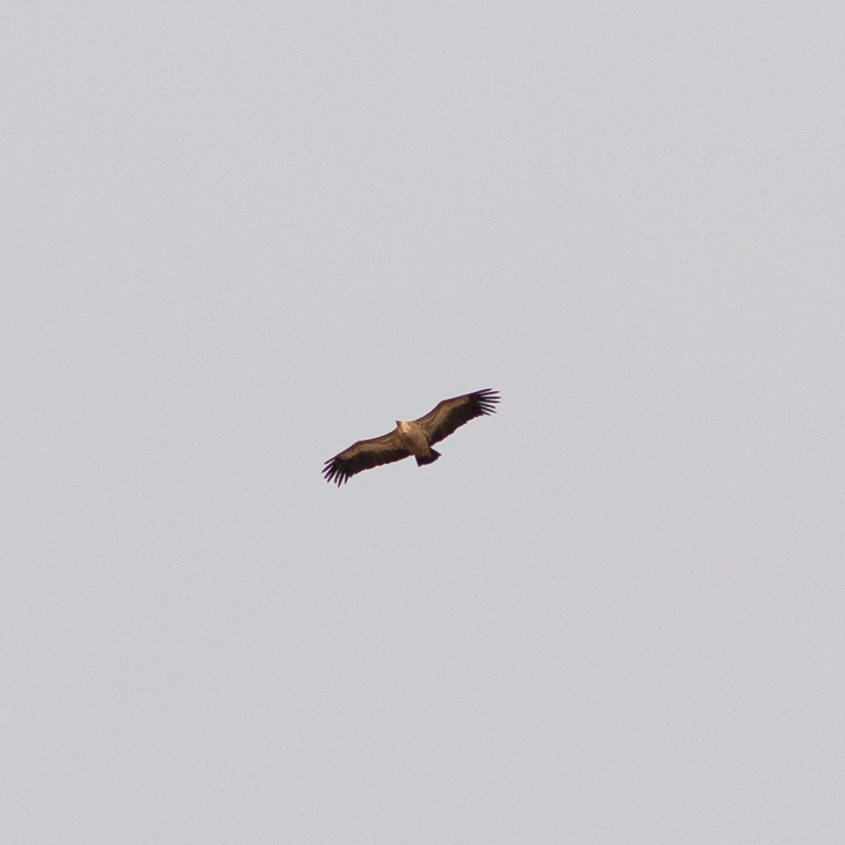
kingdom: Animalia
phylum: Chordata
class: Aves
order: Accipitriformes
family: Accipitridae
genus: Gyps
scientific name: Gyps fulvus
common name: Griffon vulture
